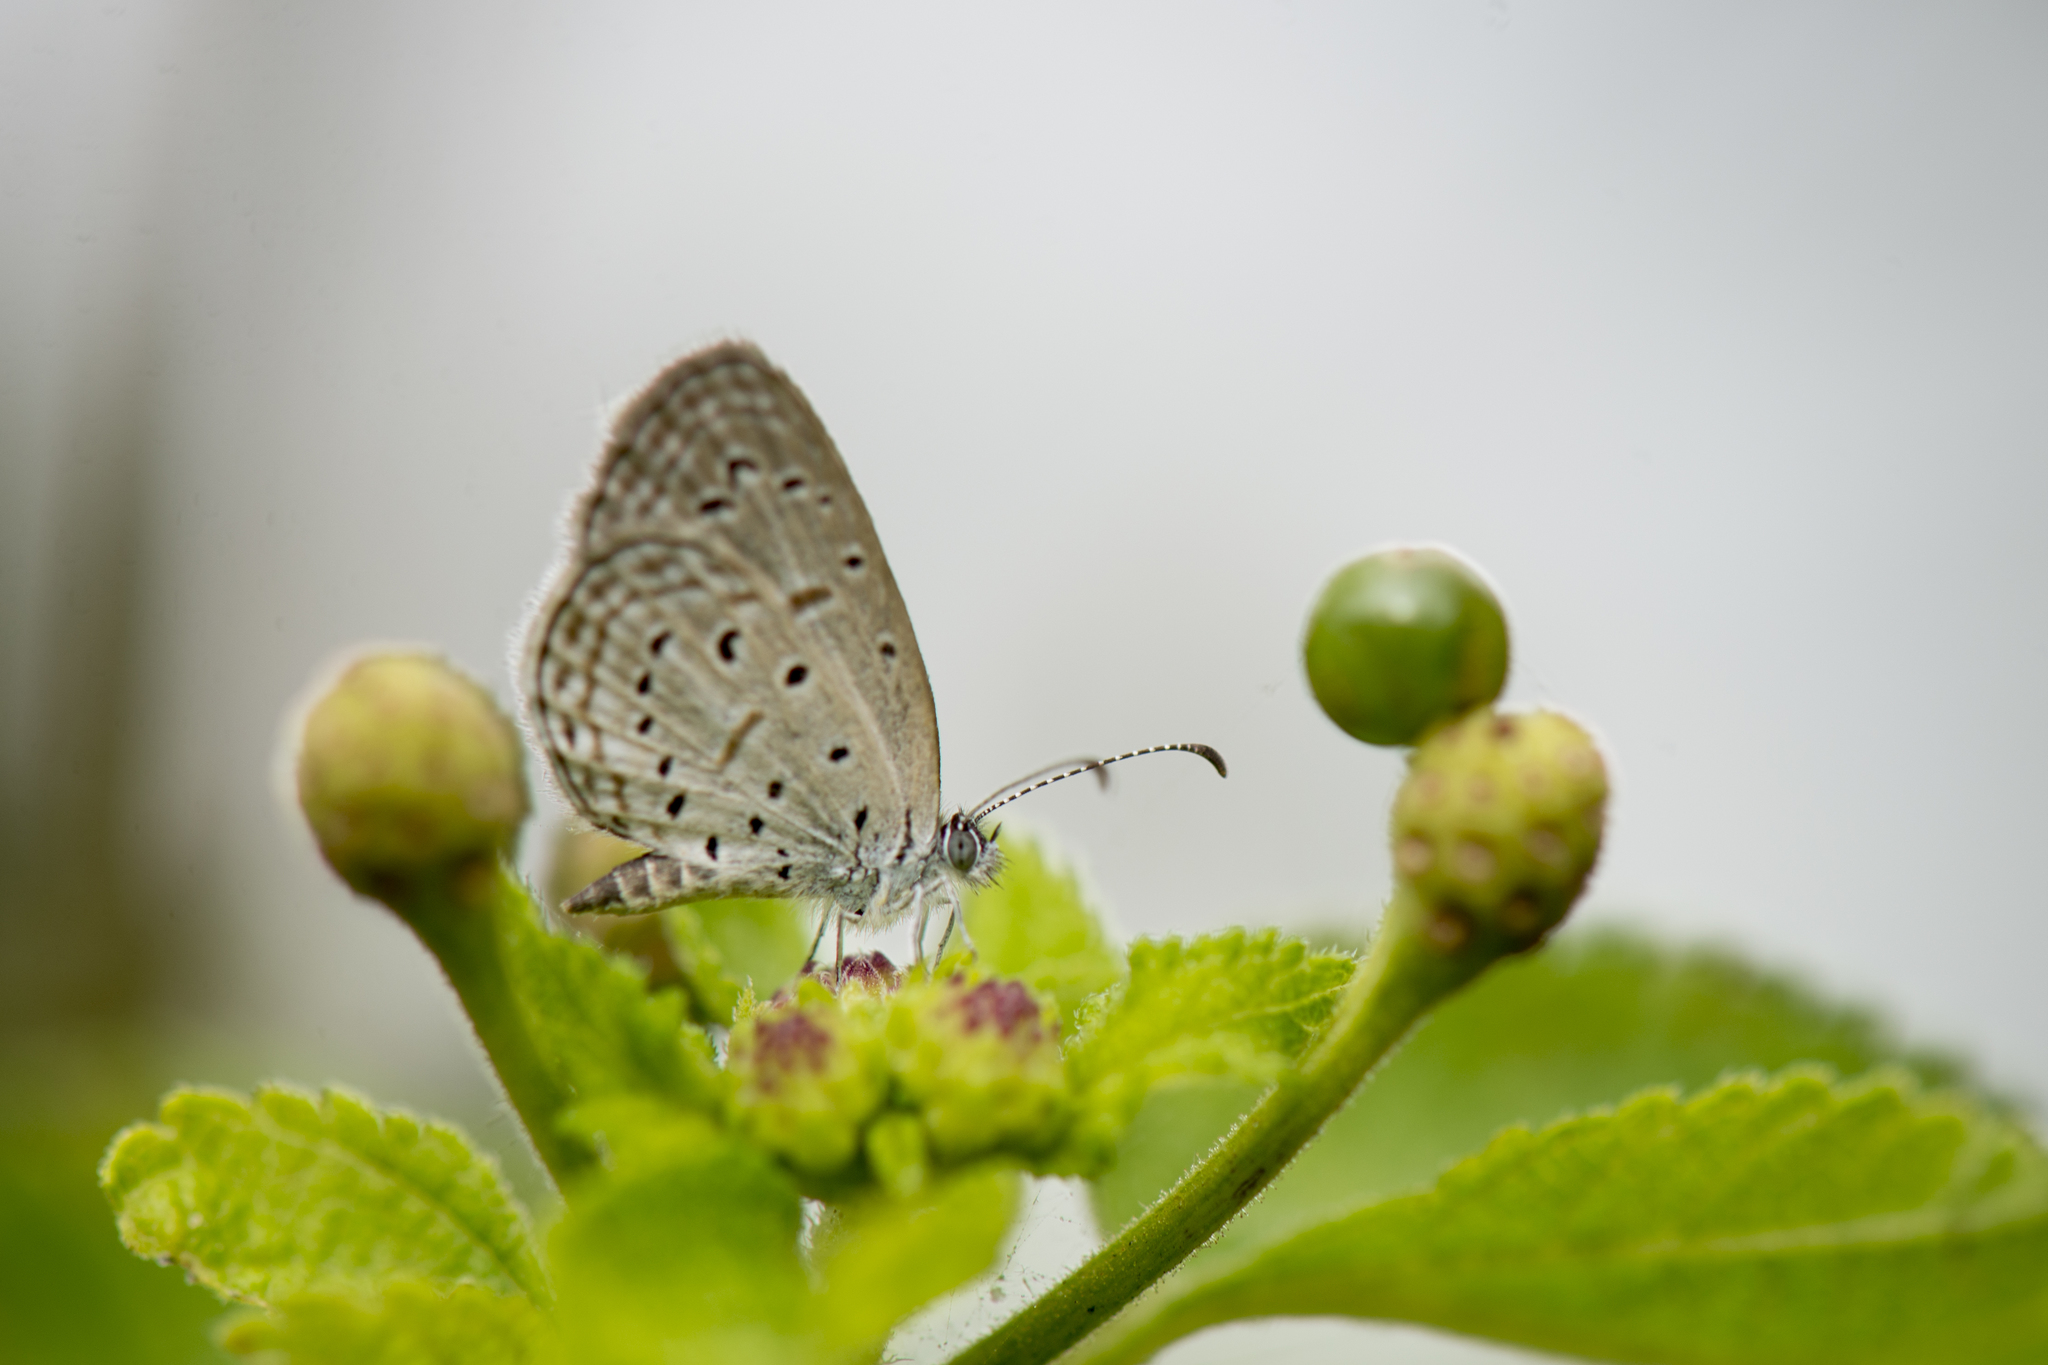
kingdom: Animalia
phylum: Arthropoda
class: Insecta
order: Lepidoptera
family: Lycaenidae
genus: Zizula
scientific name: Zizula hylax
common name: Gaika blue
